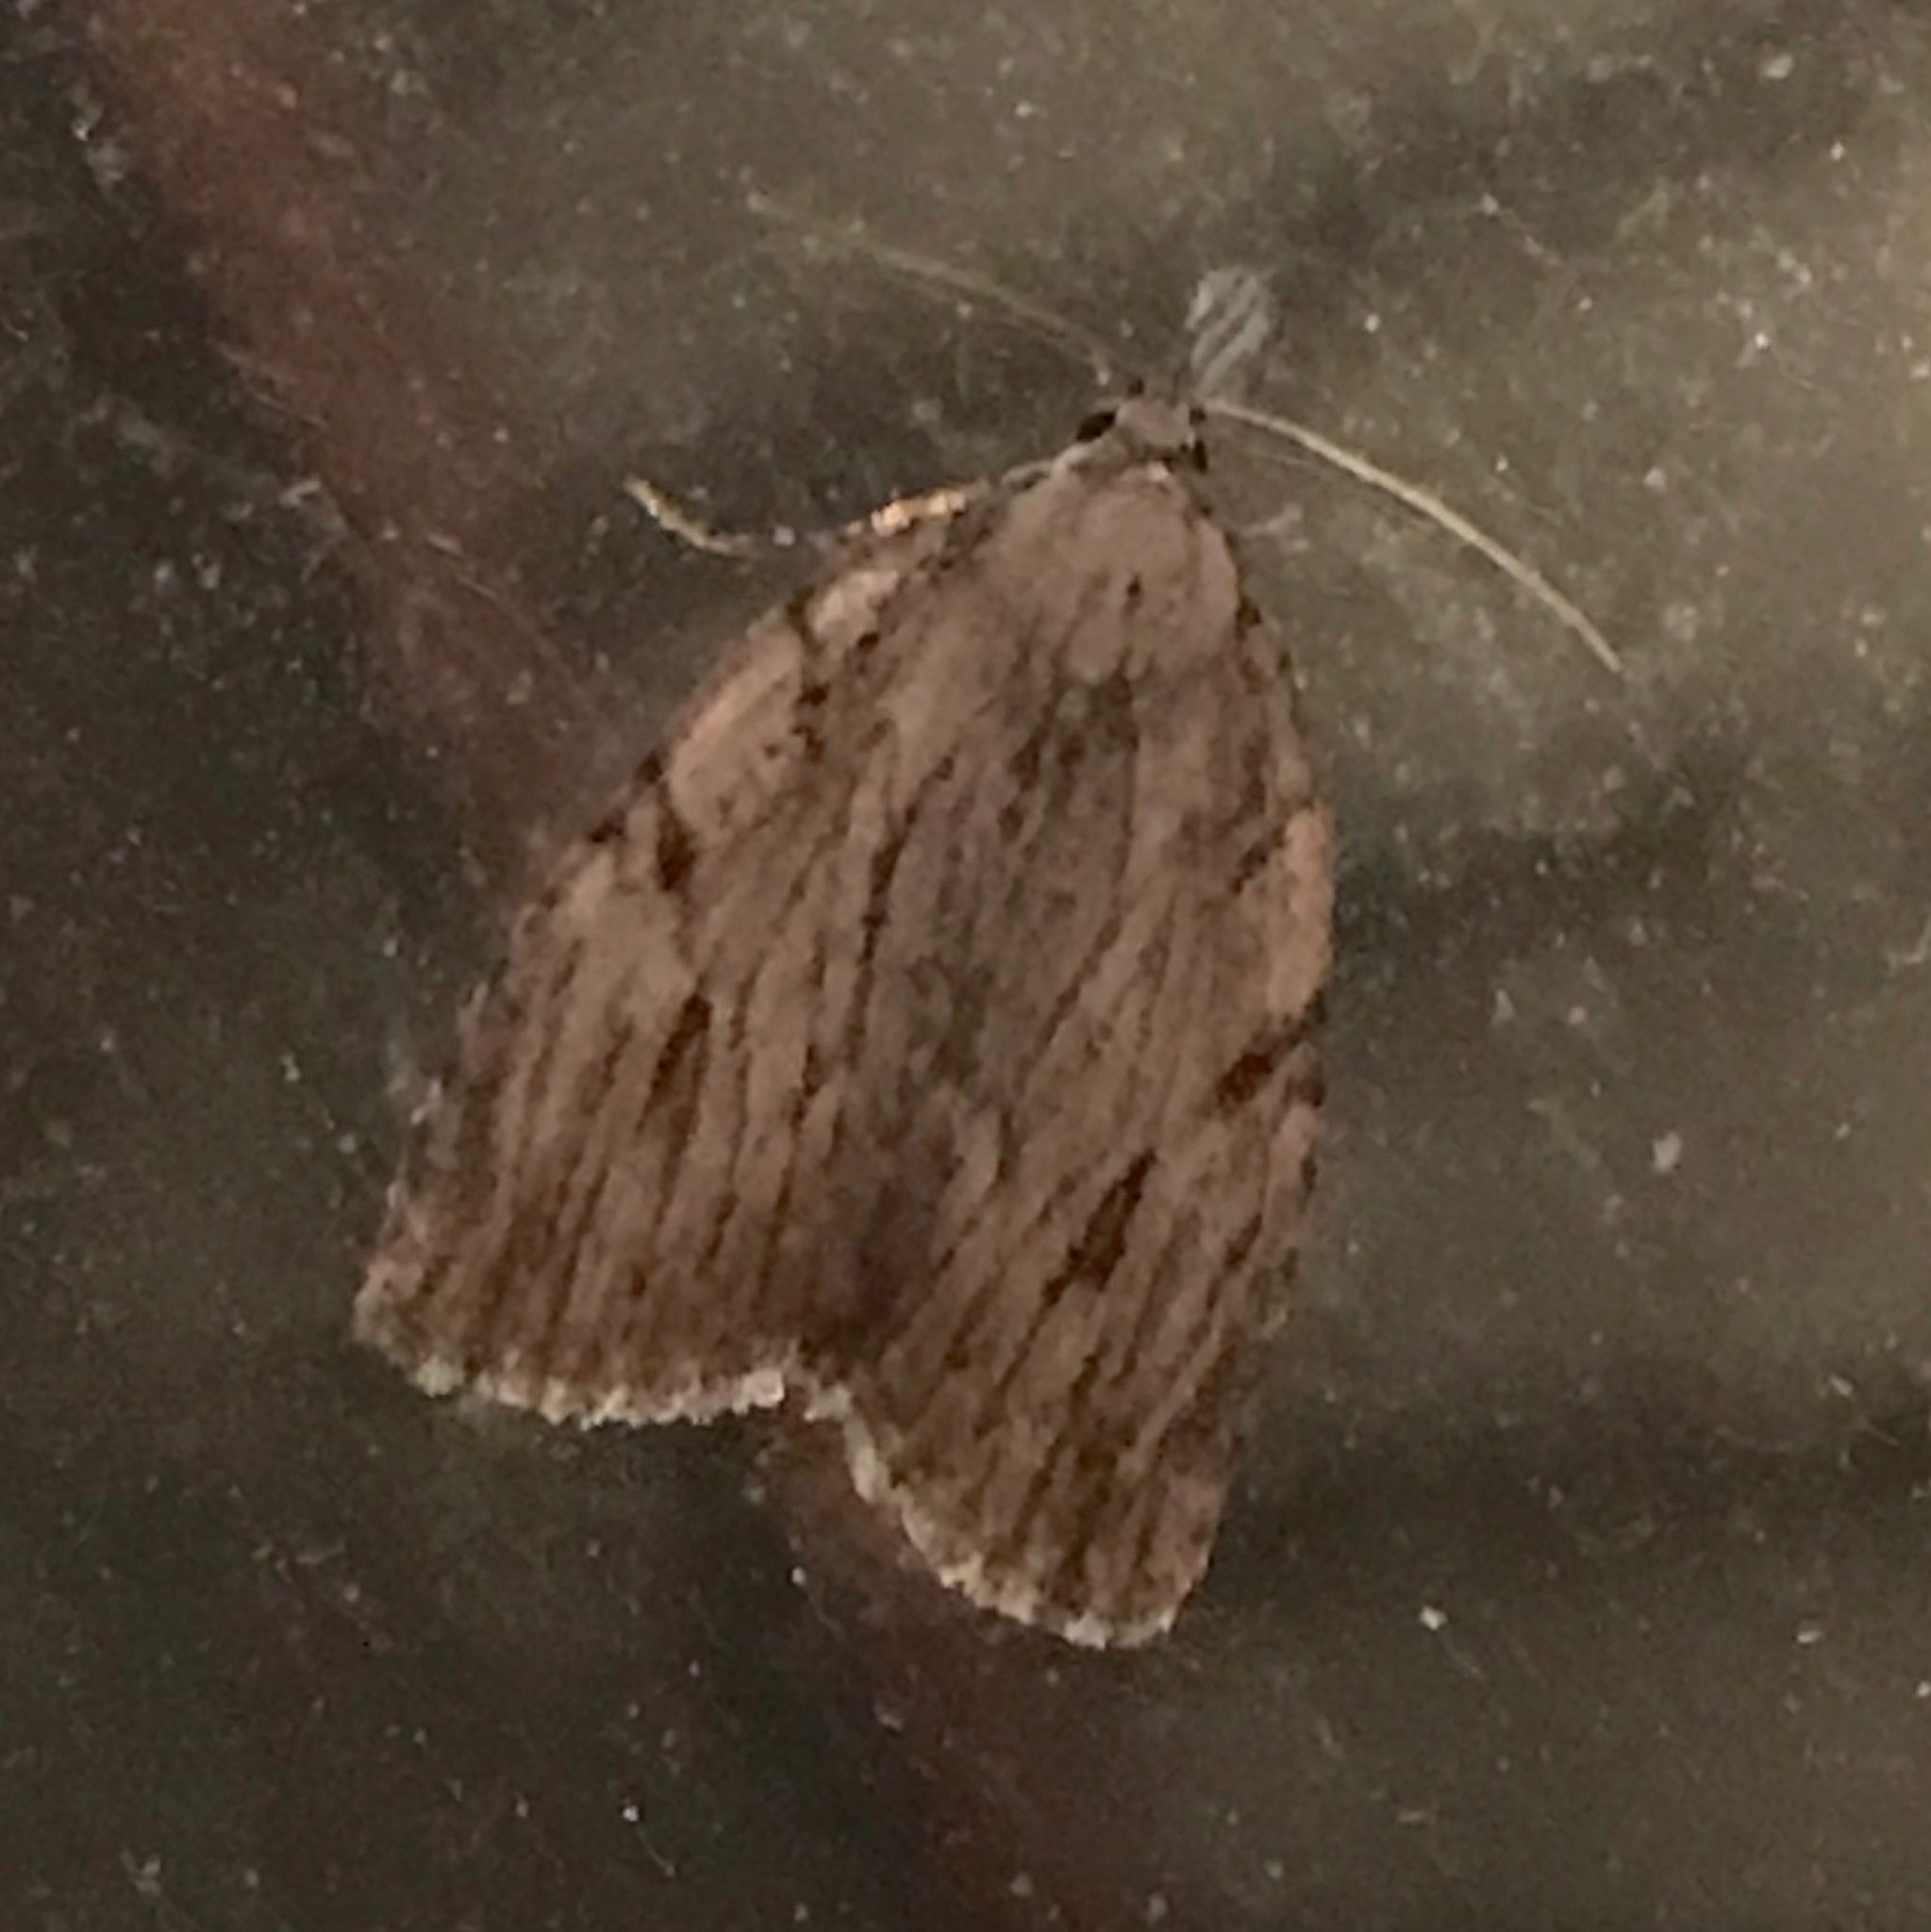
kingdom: Animalia
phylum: Arthropoda
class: Insecta
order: Lepidoptera
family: Noctuidae
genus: Balsa
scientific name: Balsa tristrigella
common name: Three-lined balsa moth
